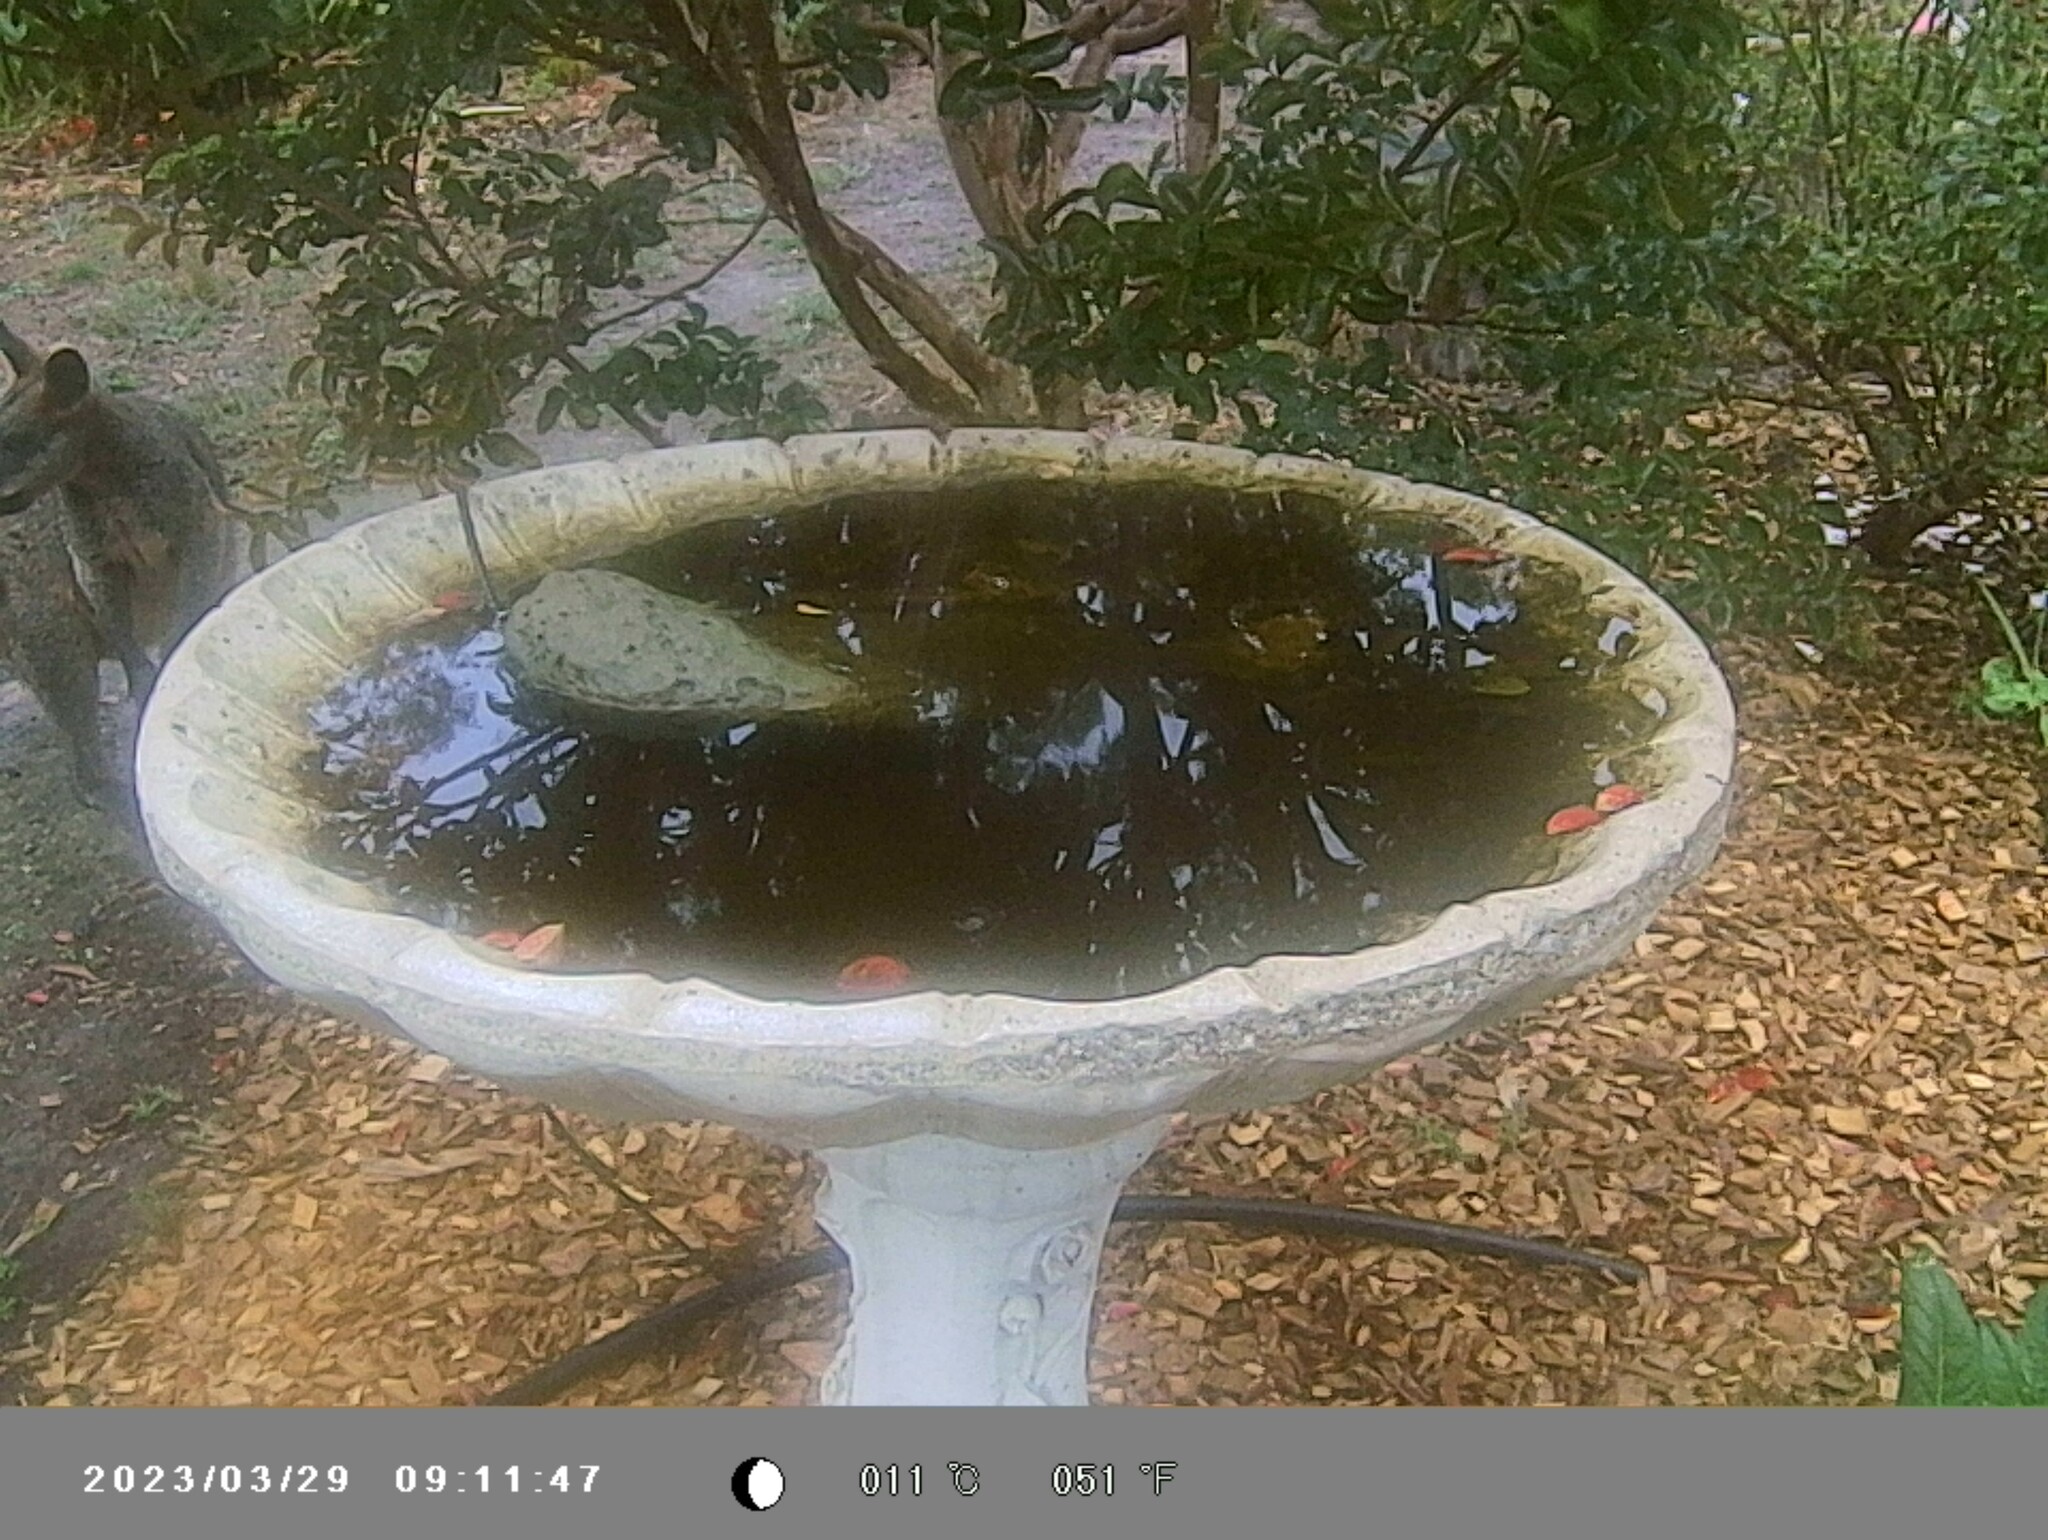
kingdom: Animalia
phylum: Chordata
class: Mammalia
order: Diprotodontia
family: Macropodidae
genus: Wallabia
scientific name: Wallabia bicolor
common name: Swamp wallaby
